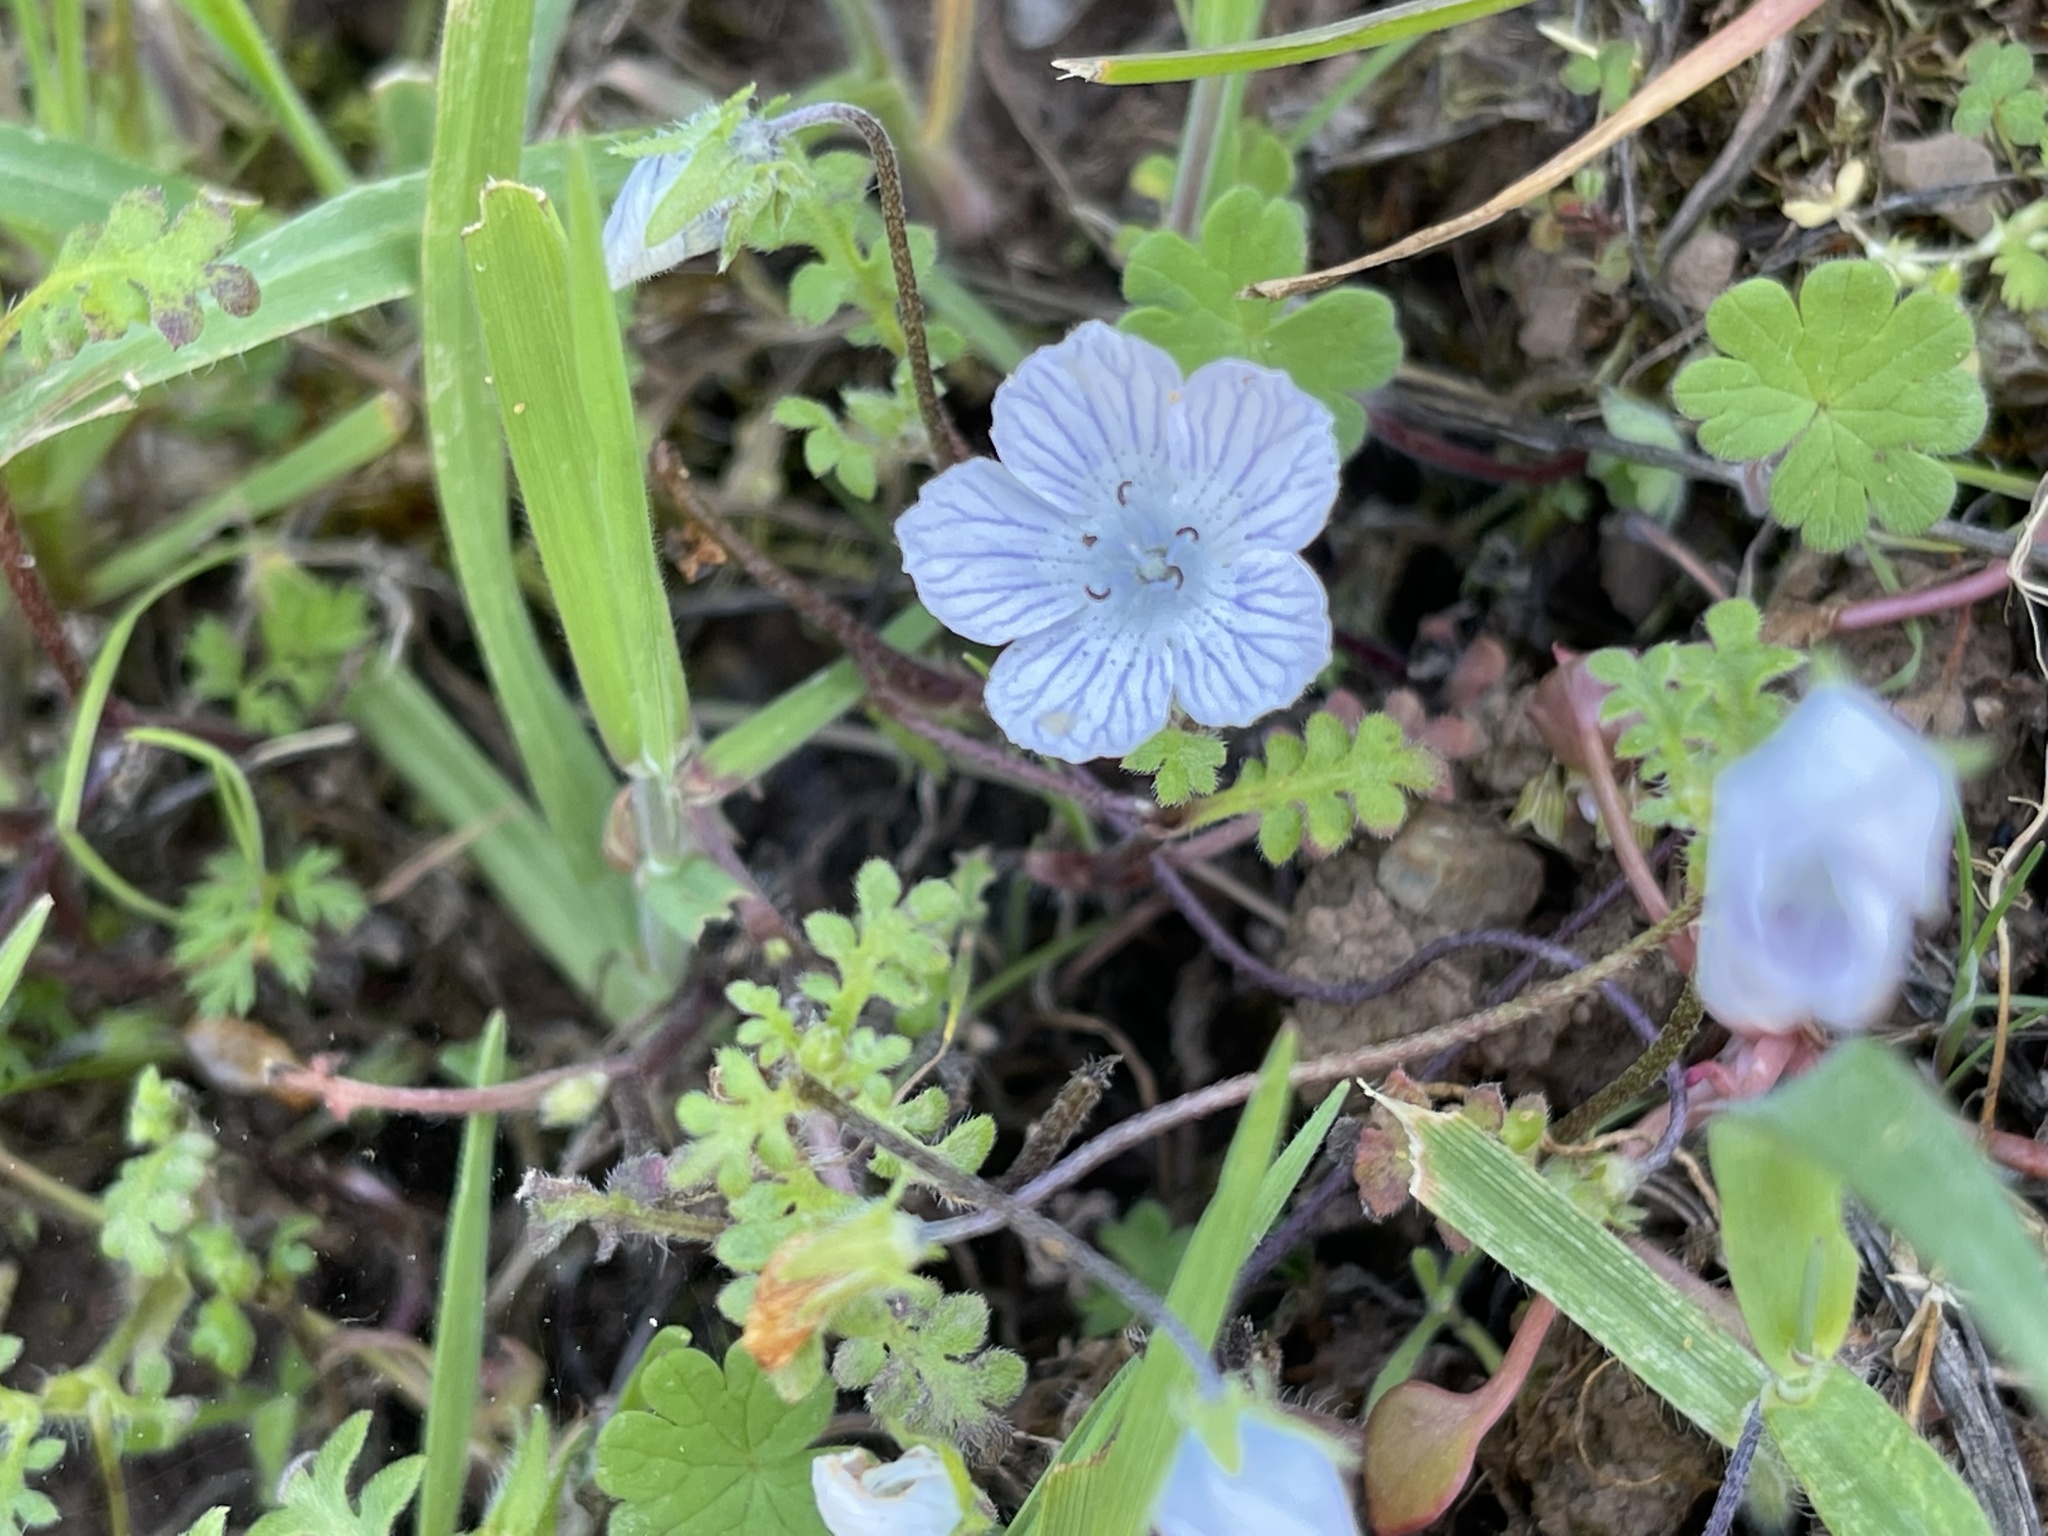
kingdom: Plantae
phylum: Tracheophyta
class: Magnoliopsida
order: Boraginales
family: Hydrophyllaceae
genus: Nemophila
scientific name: Nemophila menziesii
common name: Baby's-blue-eyes
